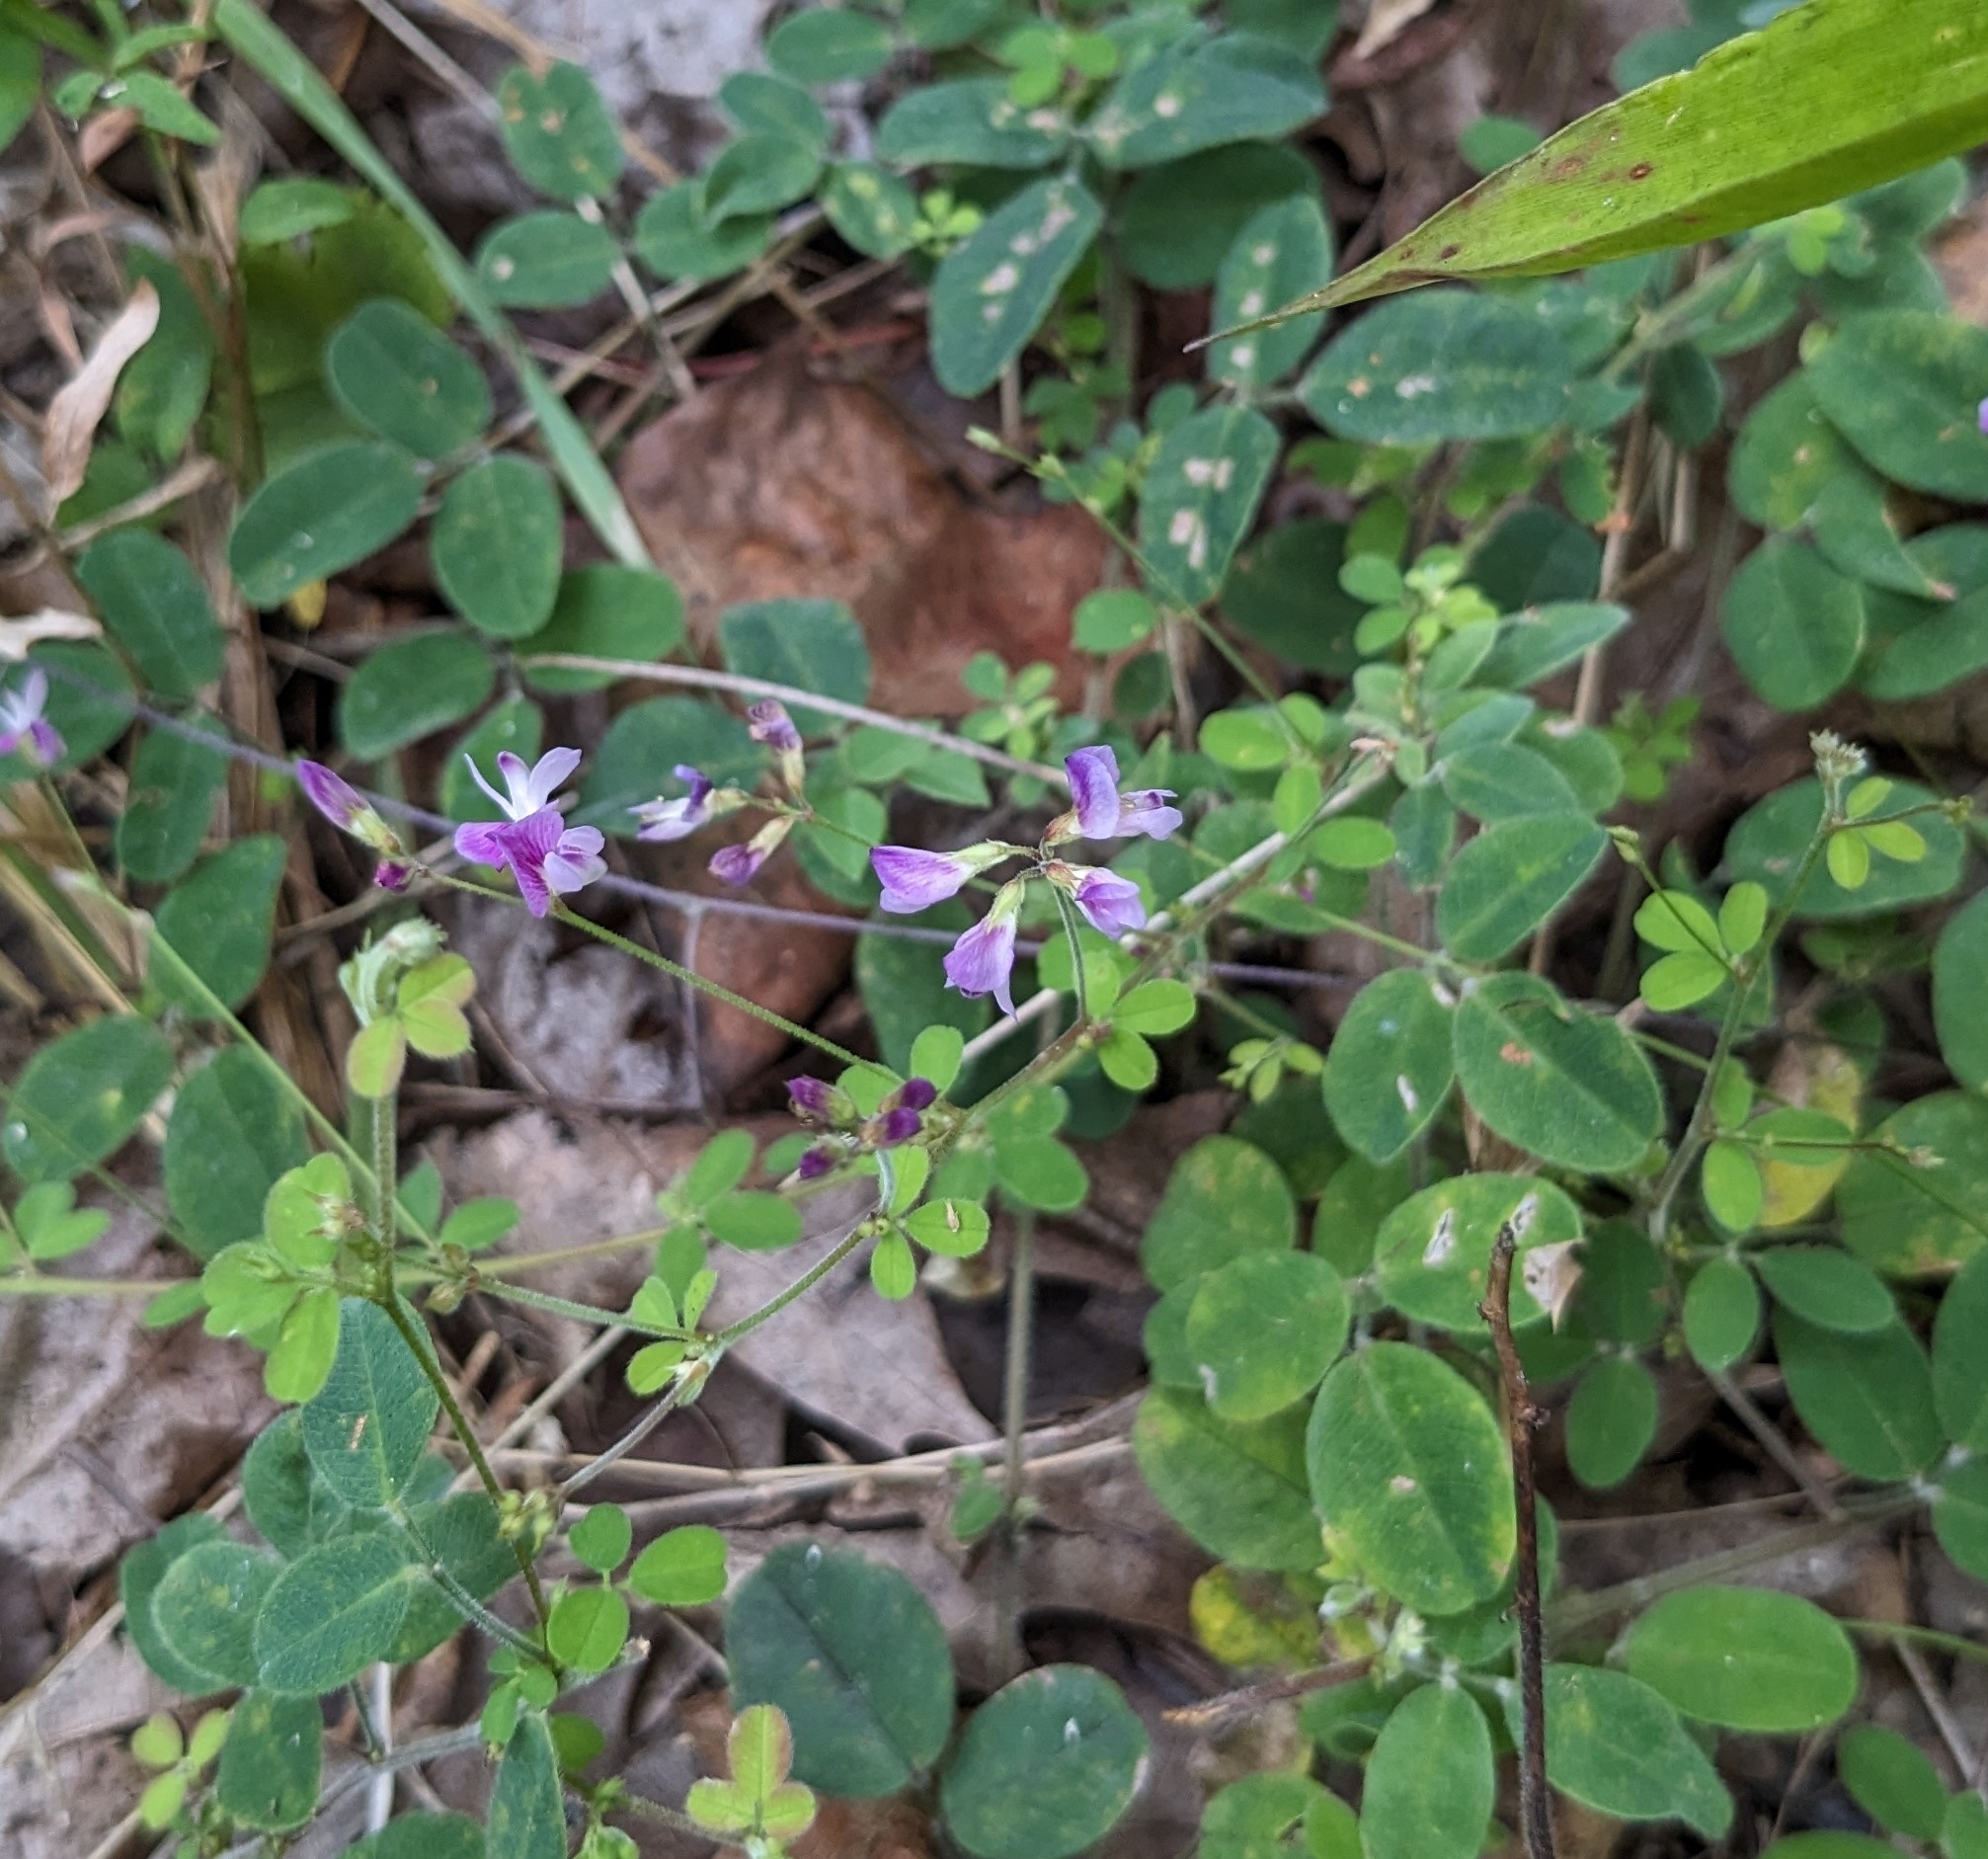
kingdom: Plantae
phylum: Tracheophyta
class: Magnoliopsida
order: Fabales
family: Fabaceae
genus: Lespedeza
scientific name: Lespedeza procumbens
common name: Downy trailing bush-clover
